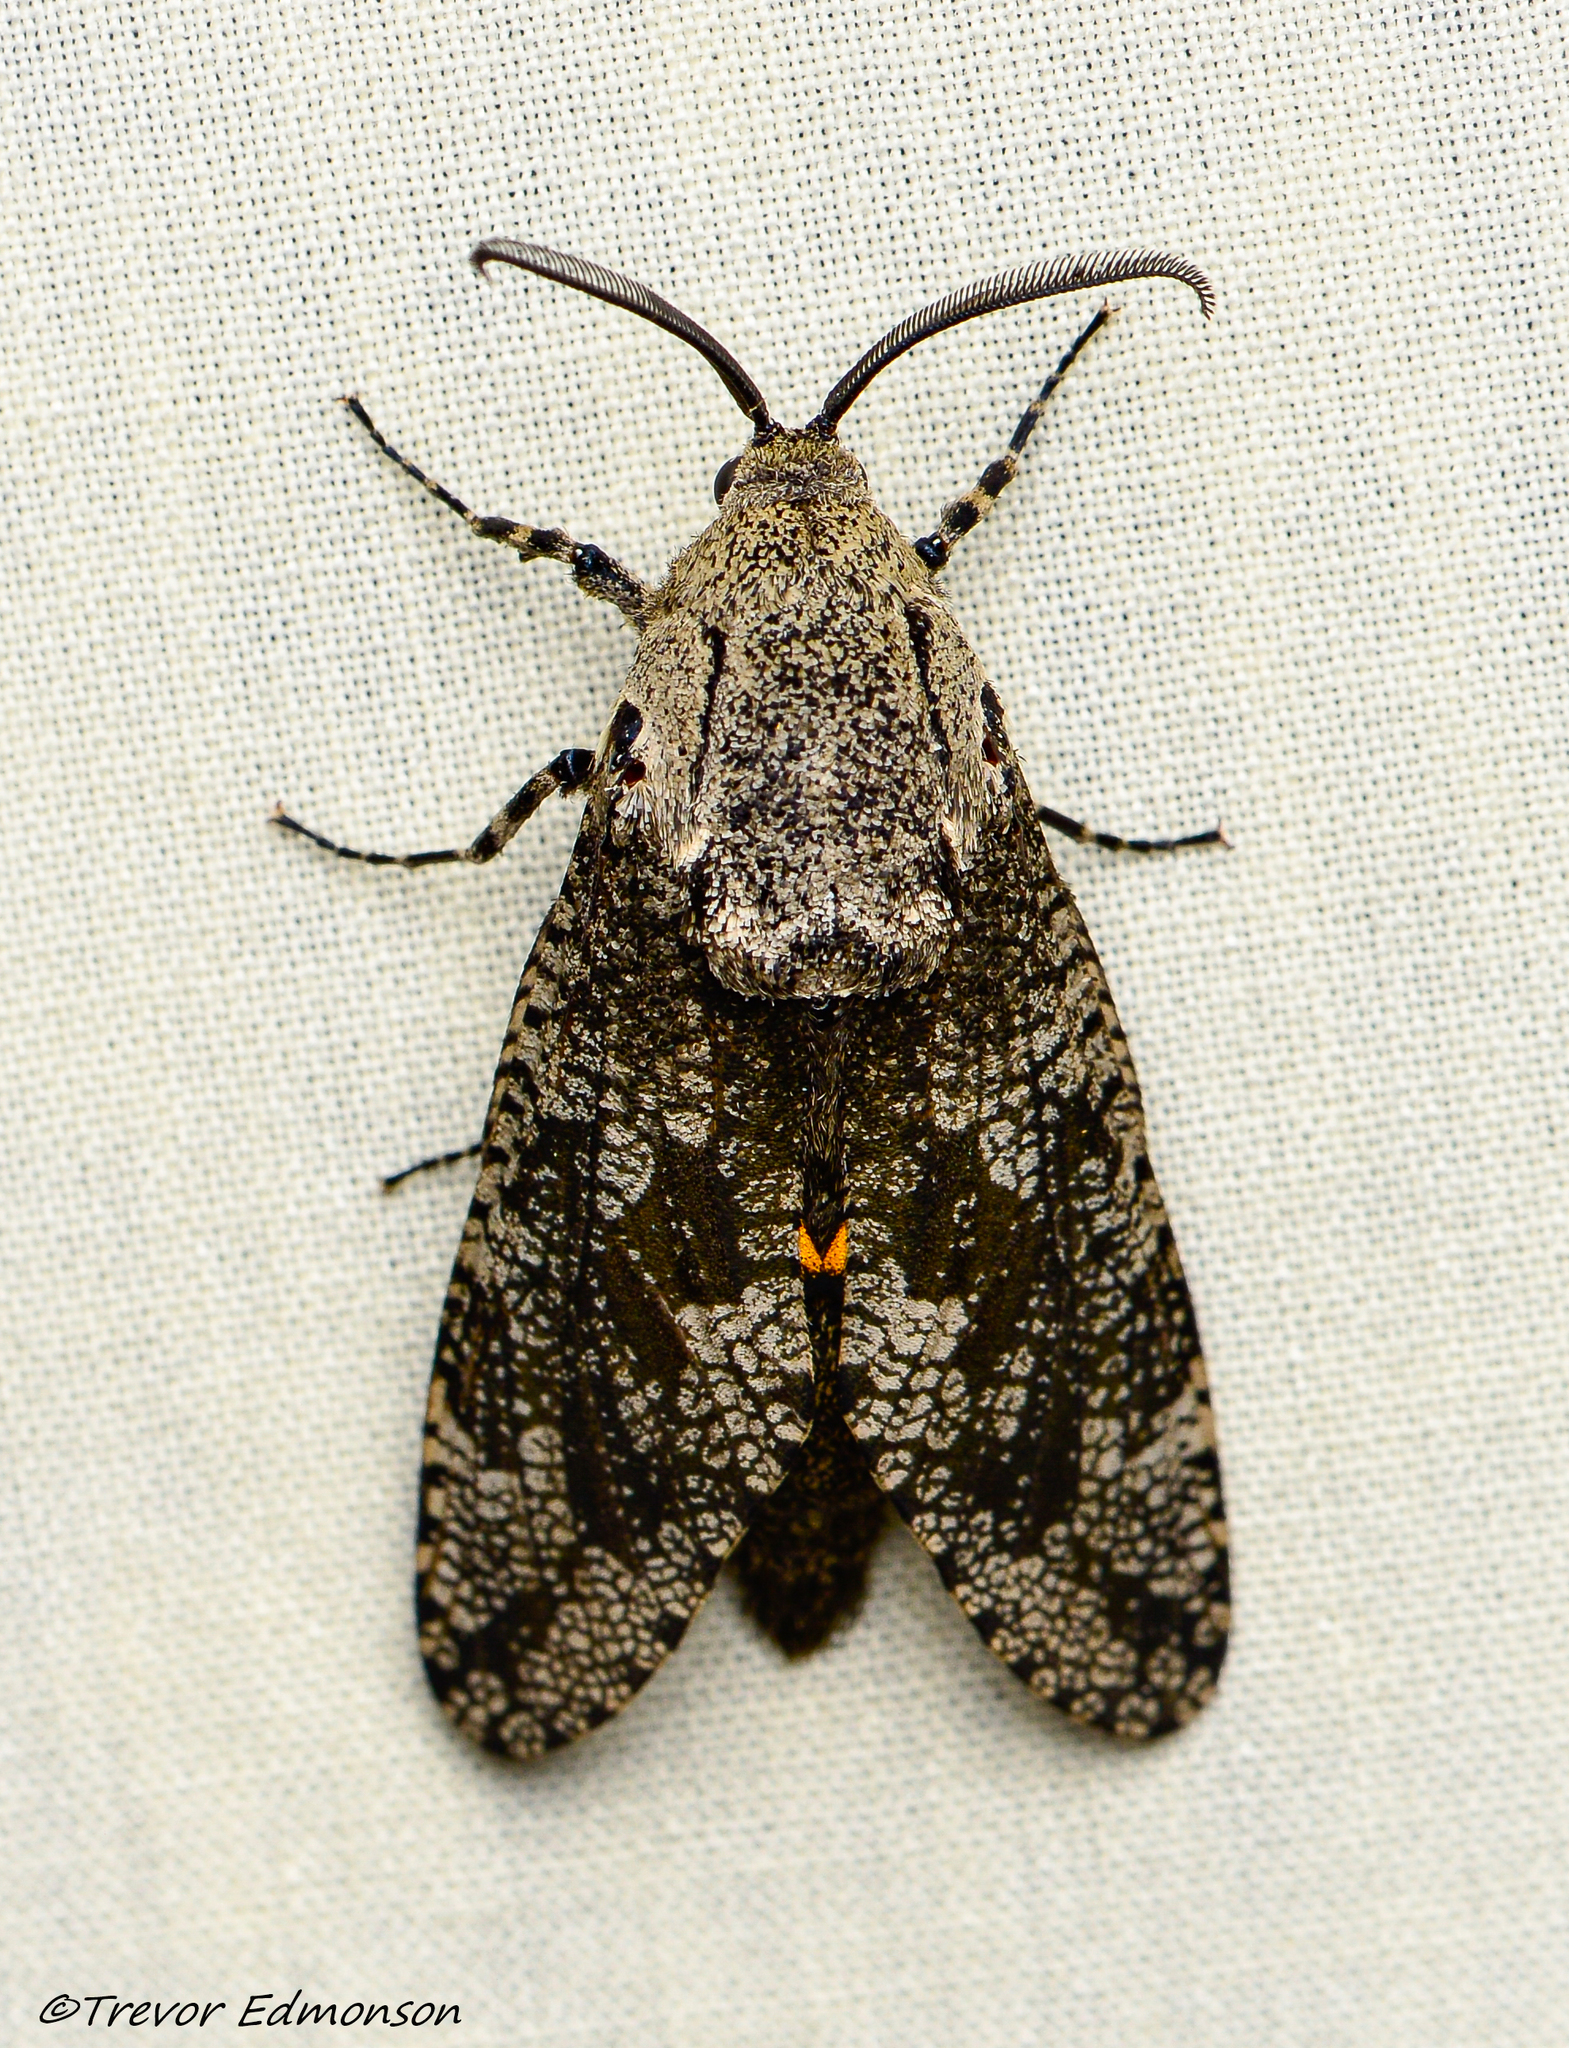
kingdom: Animalia
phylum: Arthropoda
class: Insecta
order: Lepidoptera
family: Cossidae
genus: Prionoxystus
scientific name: Prionoxystus robiniae
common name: Carpenterworm
